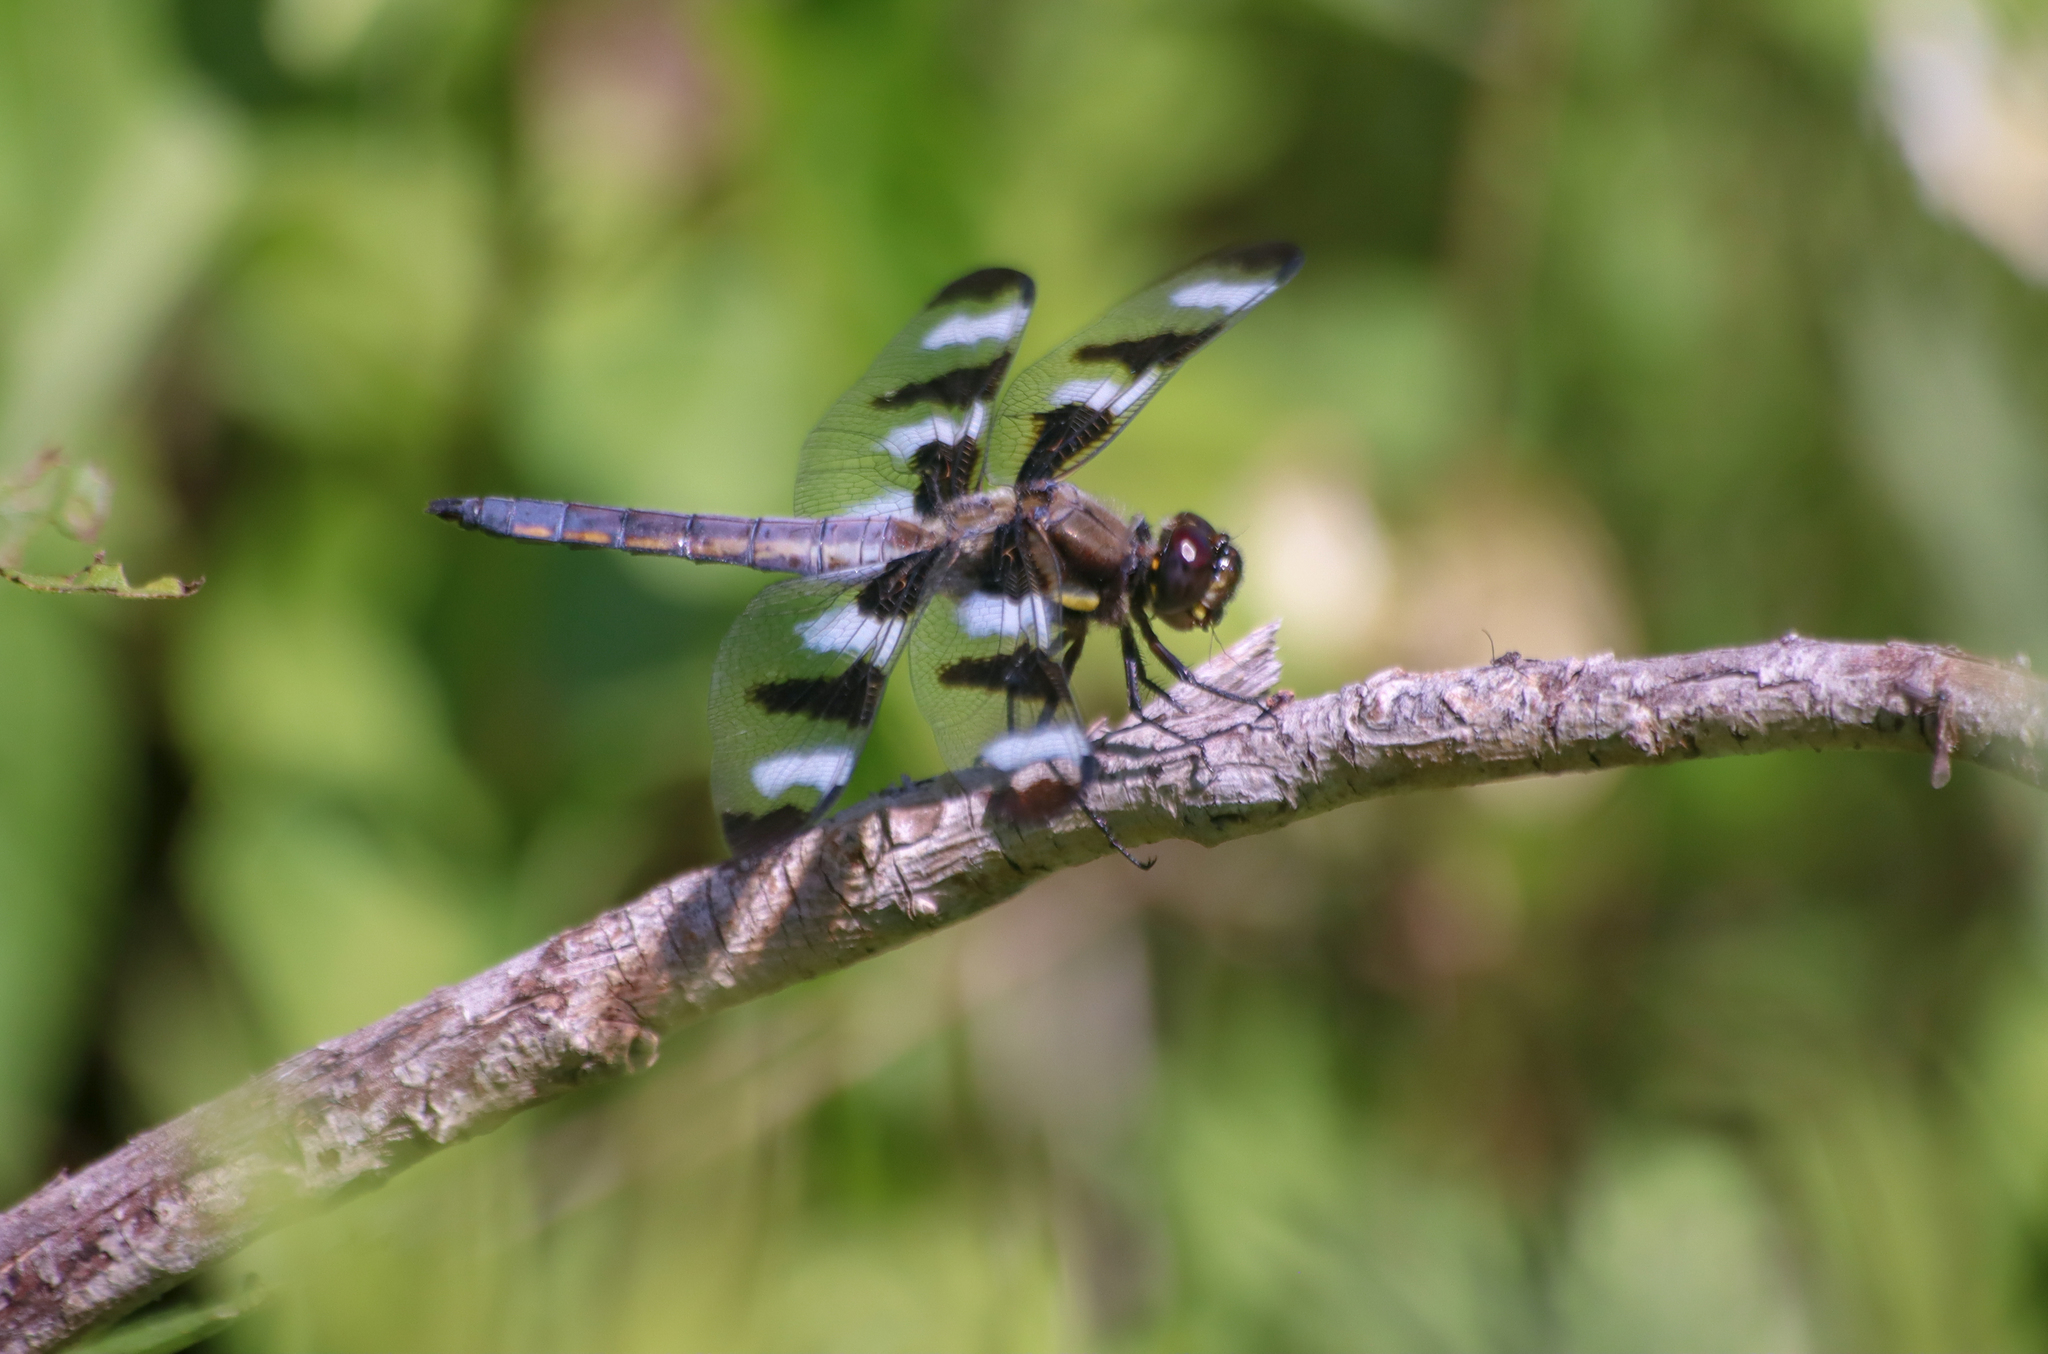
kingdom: Animalia
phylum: Arthropoda
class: Insecta
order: Odonata
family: Libellulidae
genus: Libellula
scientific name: Libellula pulchella
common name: Twelve-spotted skimmer
